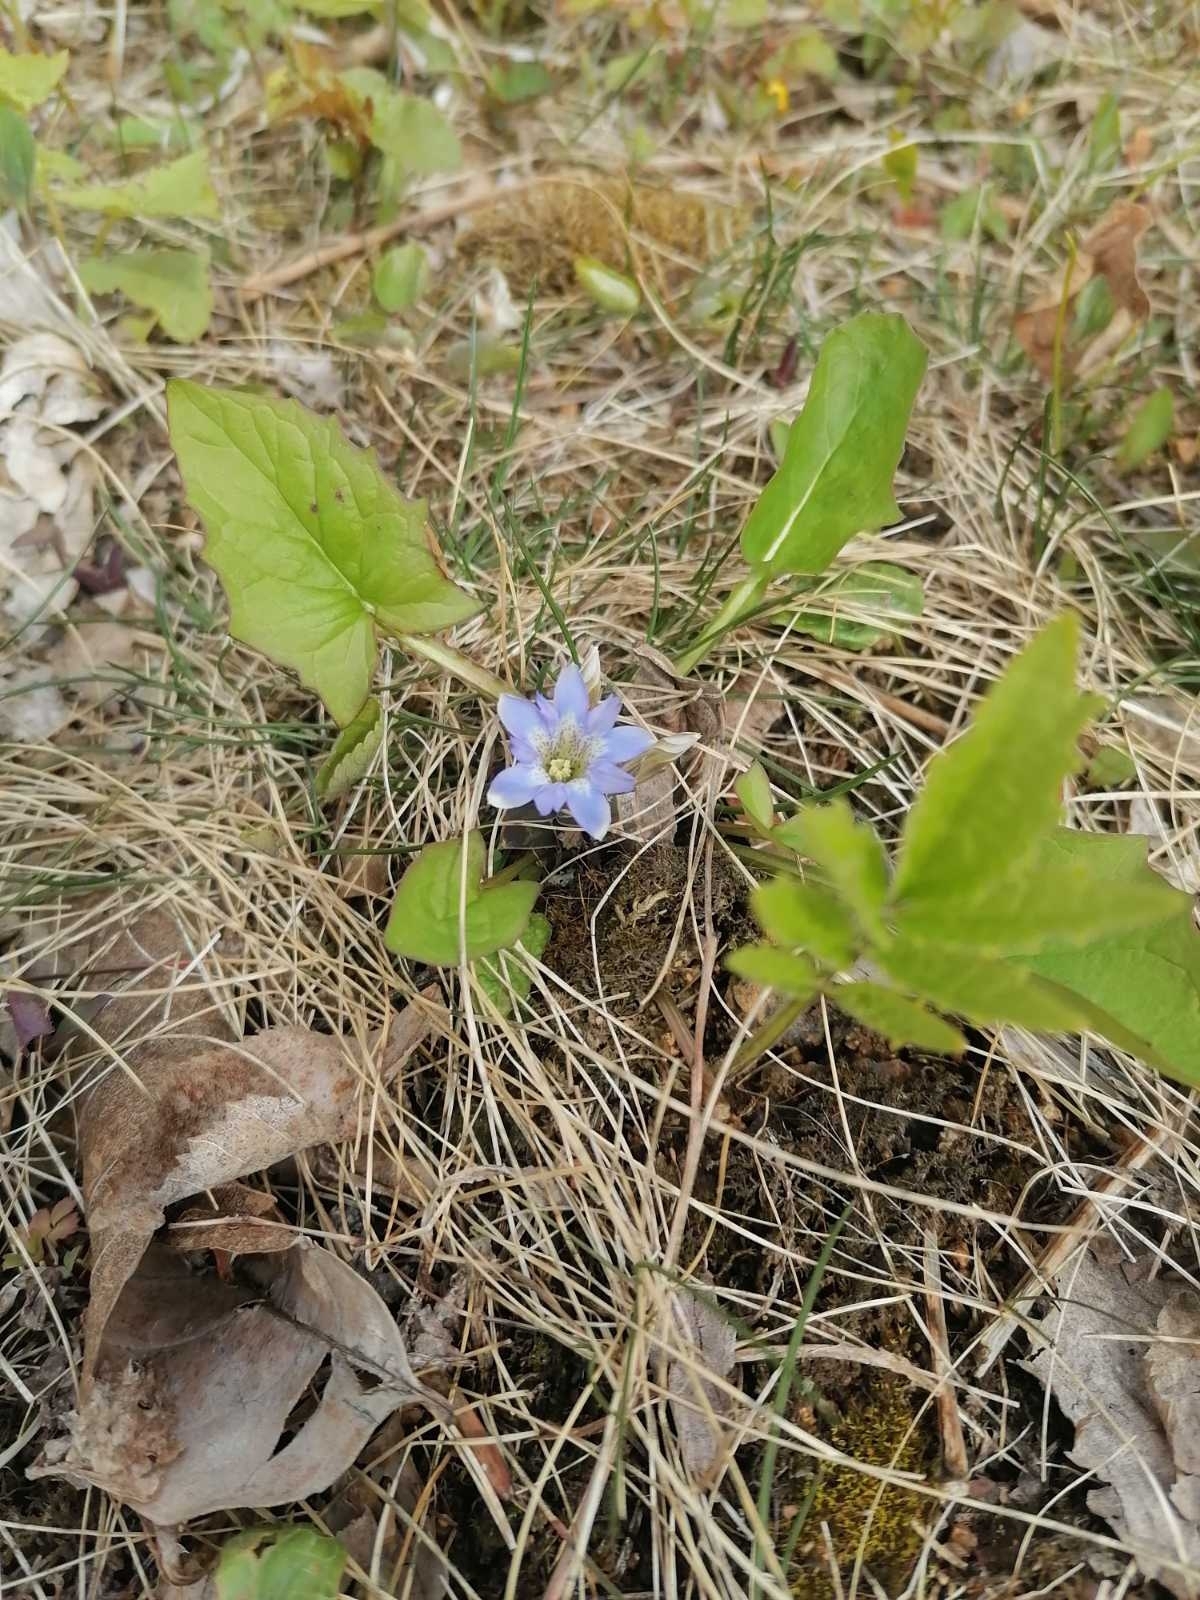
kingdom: Plantae
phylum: Tracheophyta
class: Magnoliopsida
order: Gentianales
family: Gentianaceae
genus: Gentiana
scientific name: Gentiana zollingeri
